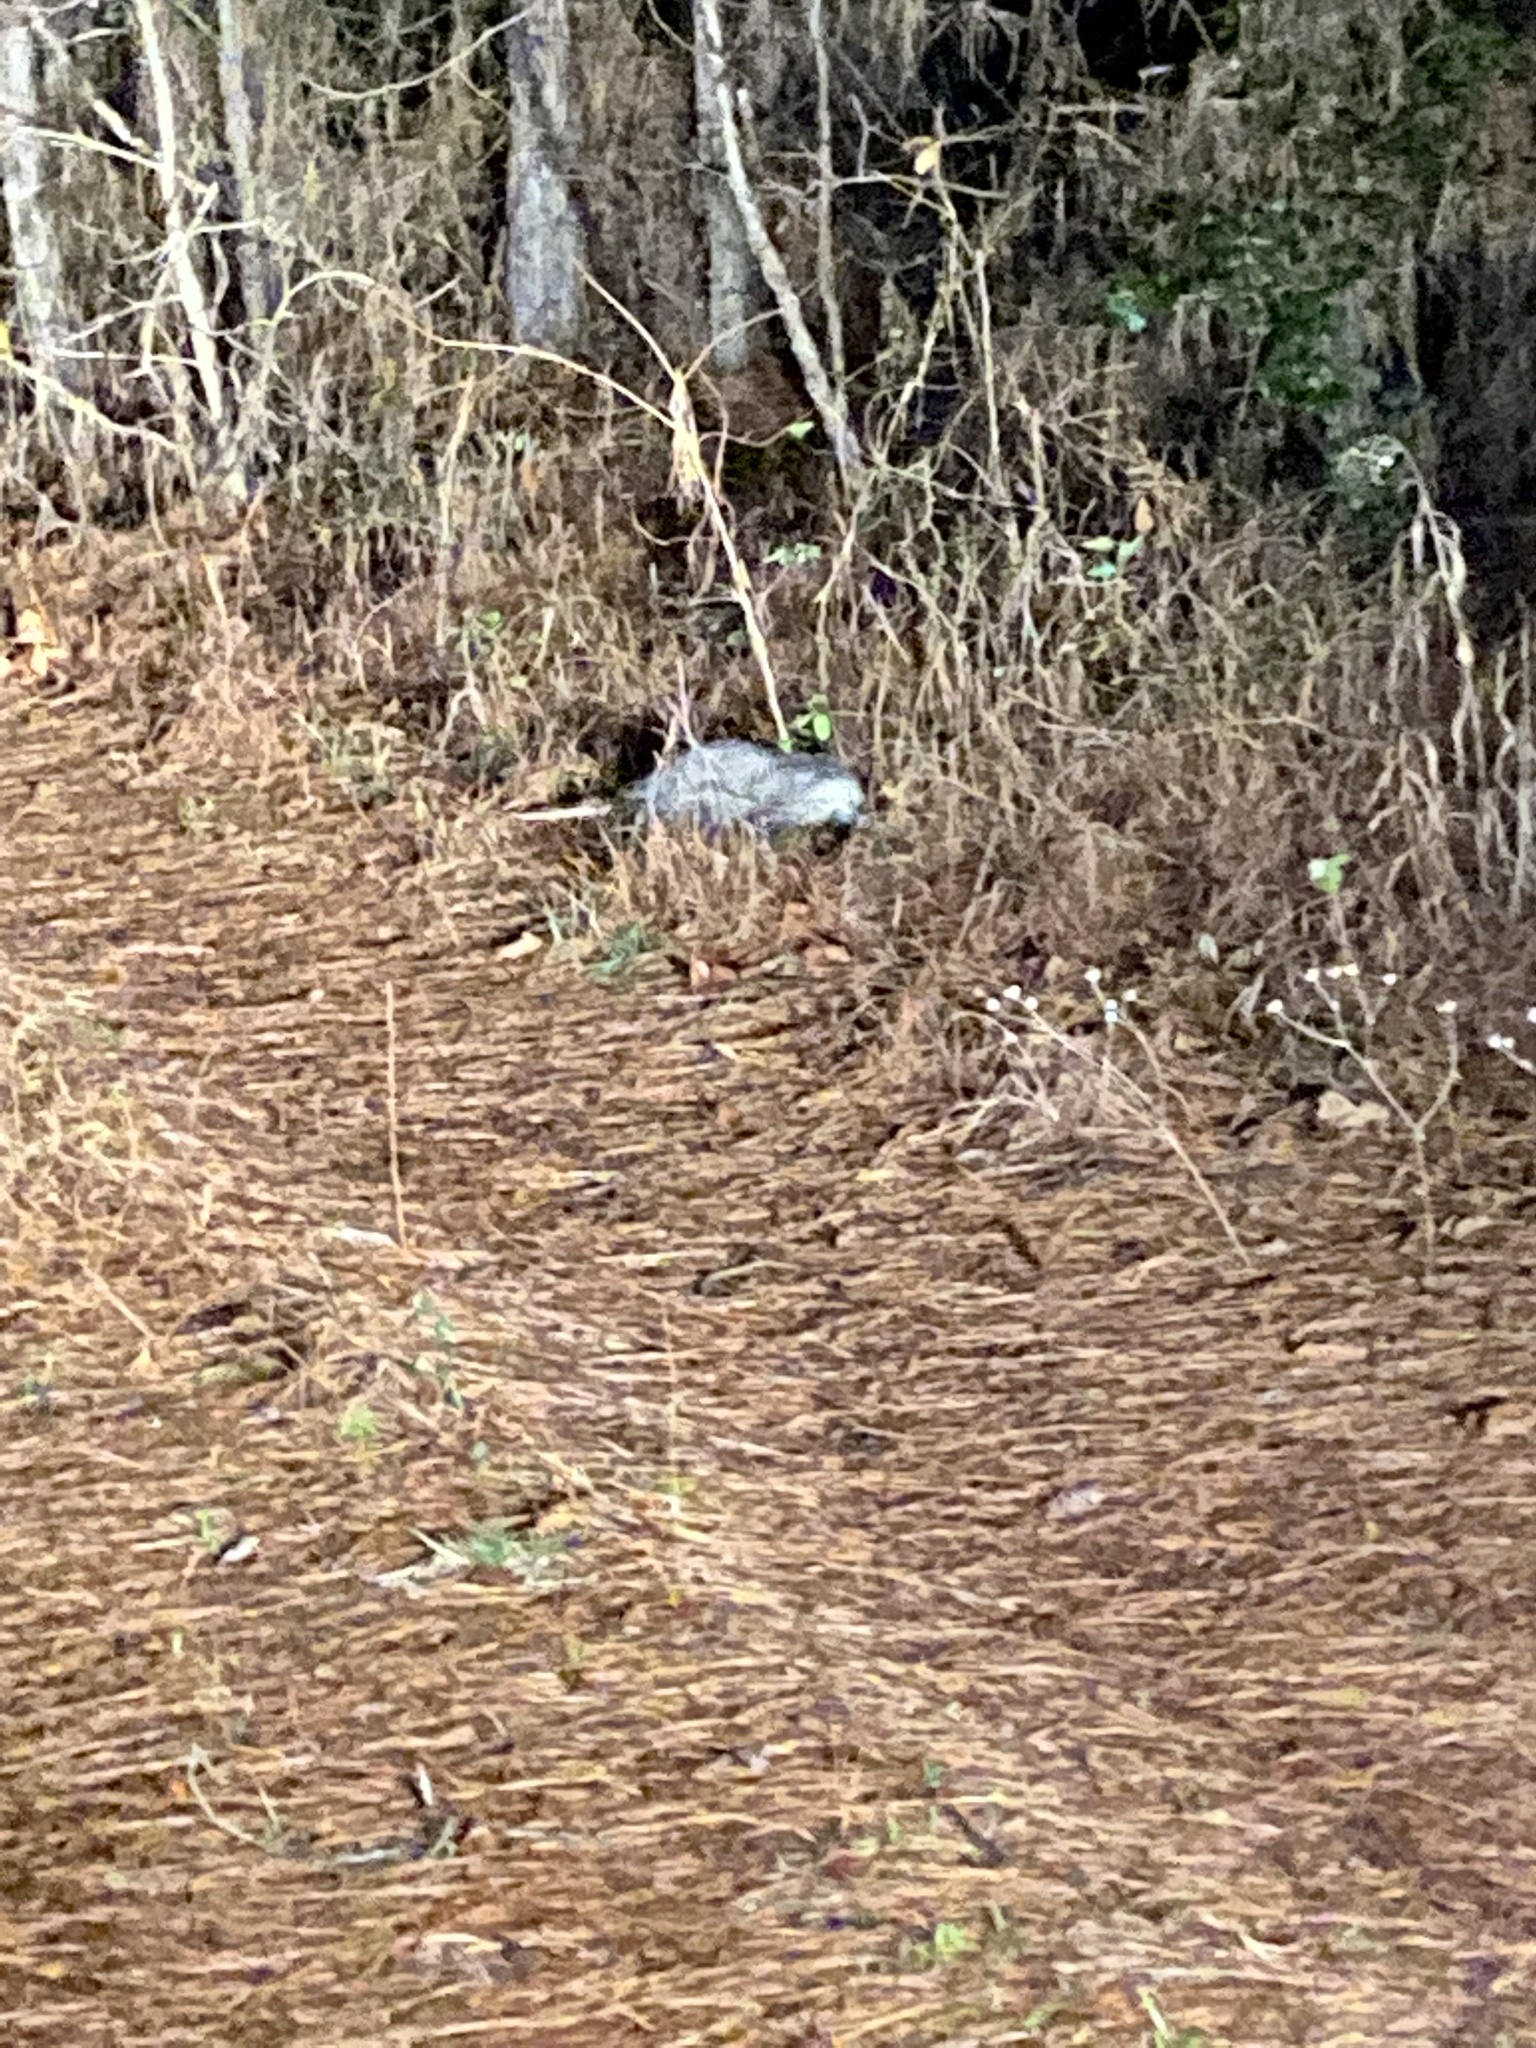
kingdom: Animalia
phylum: Chordata
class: Mammalia
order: Didelphimorphia
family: Didelphidae
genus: Didelphis
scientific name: Didelphis virginiana
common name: Virginia opossum
